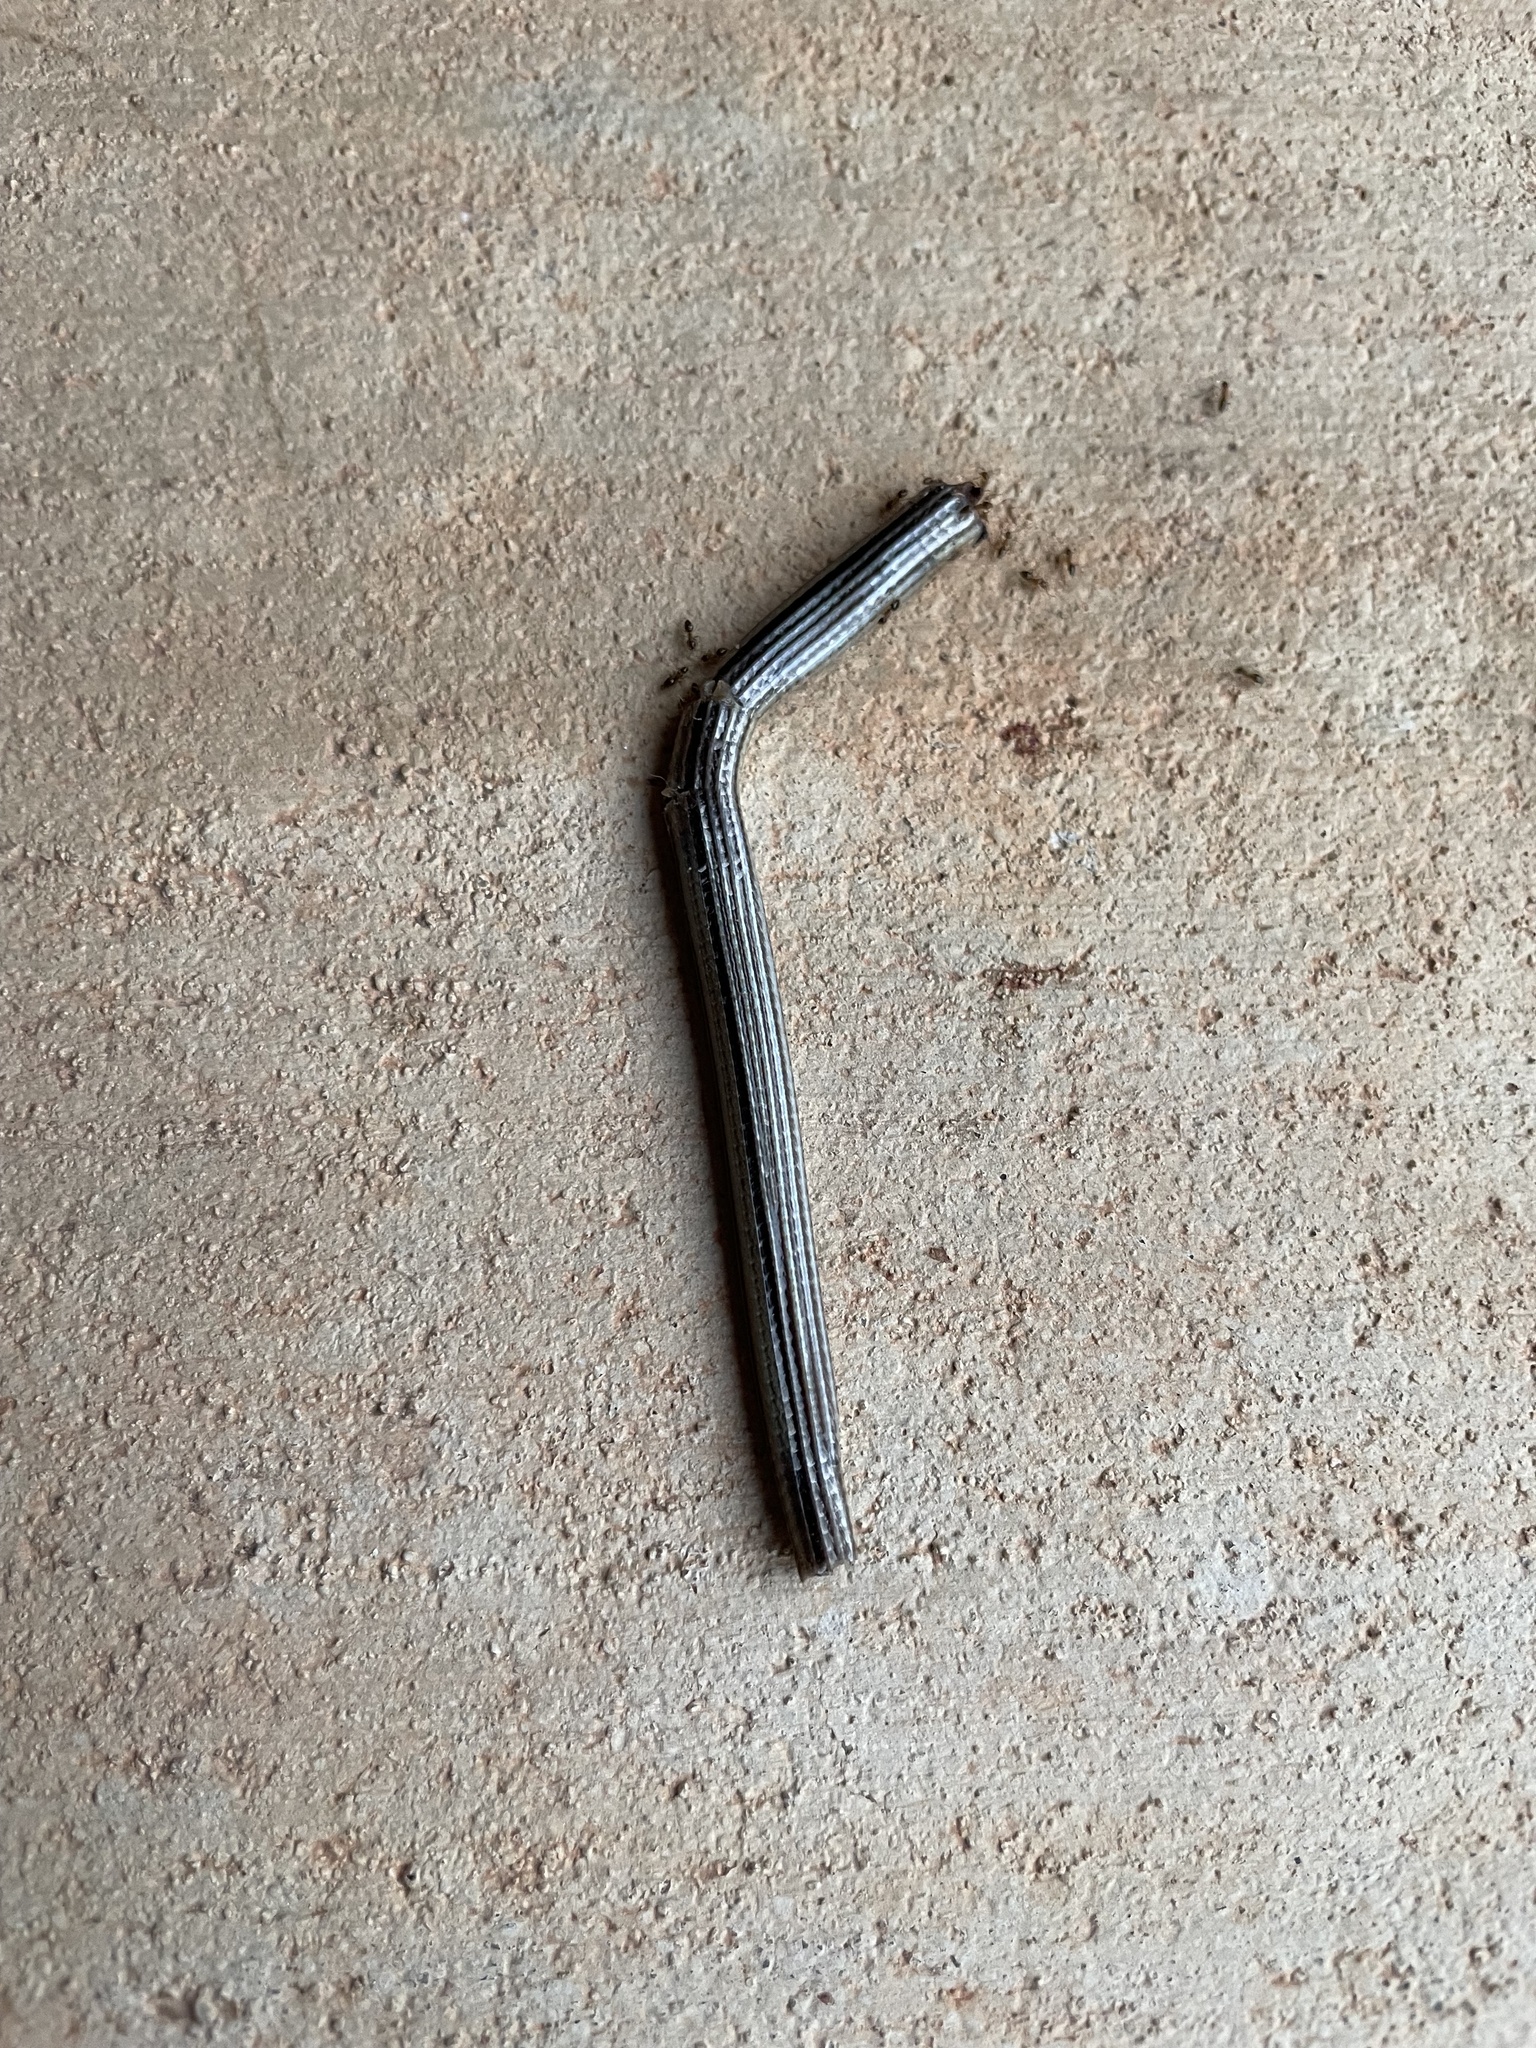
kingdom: Animalia
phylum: Chordata
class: Squamata
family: Anguidae
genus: Ophisaurus
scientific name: Ophisaurus attenuatus
